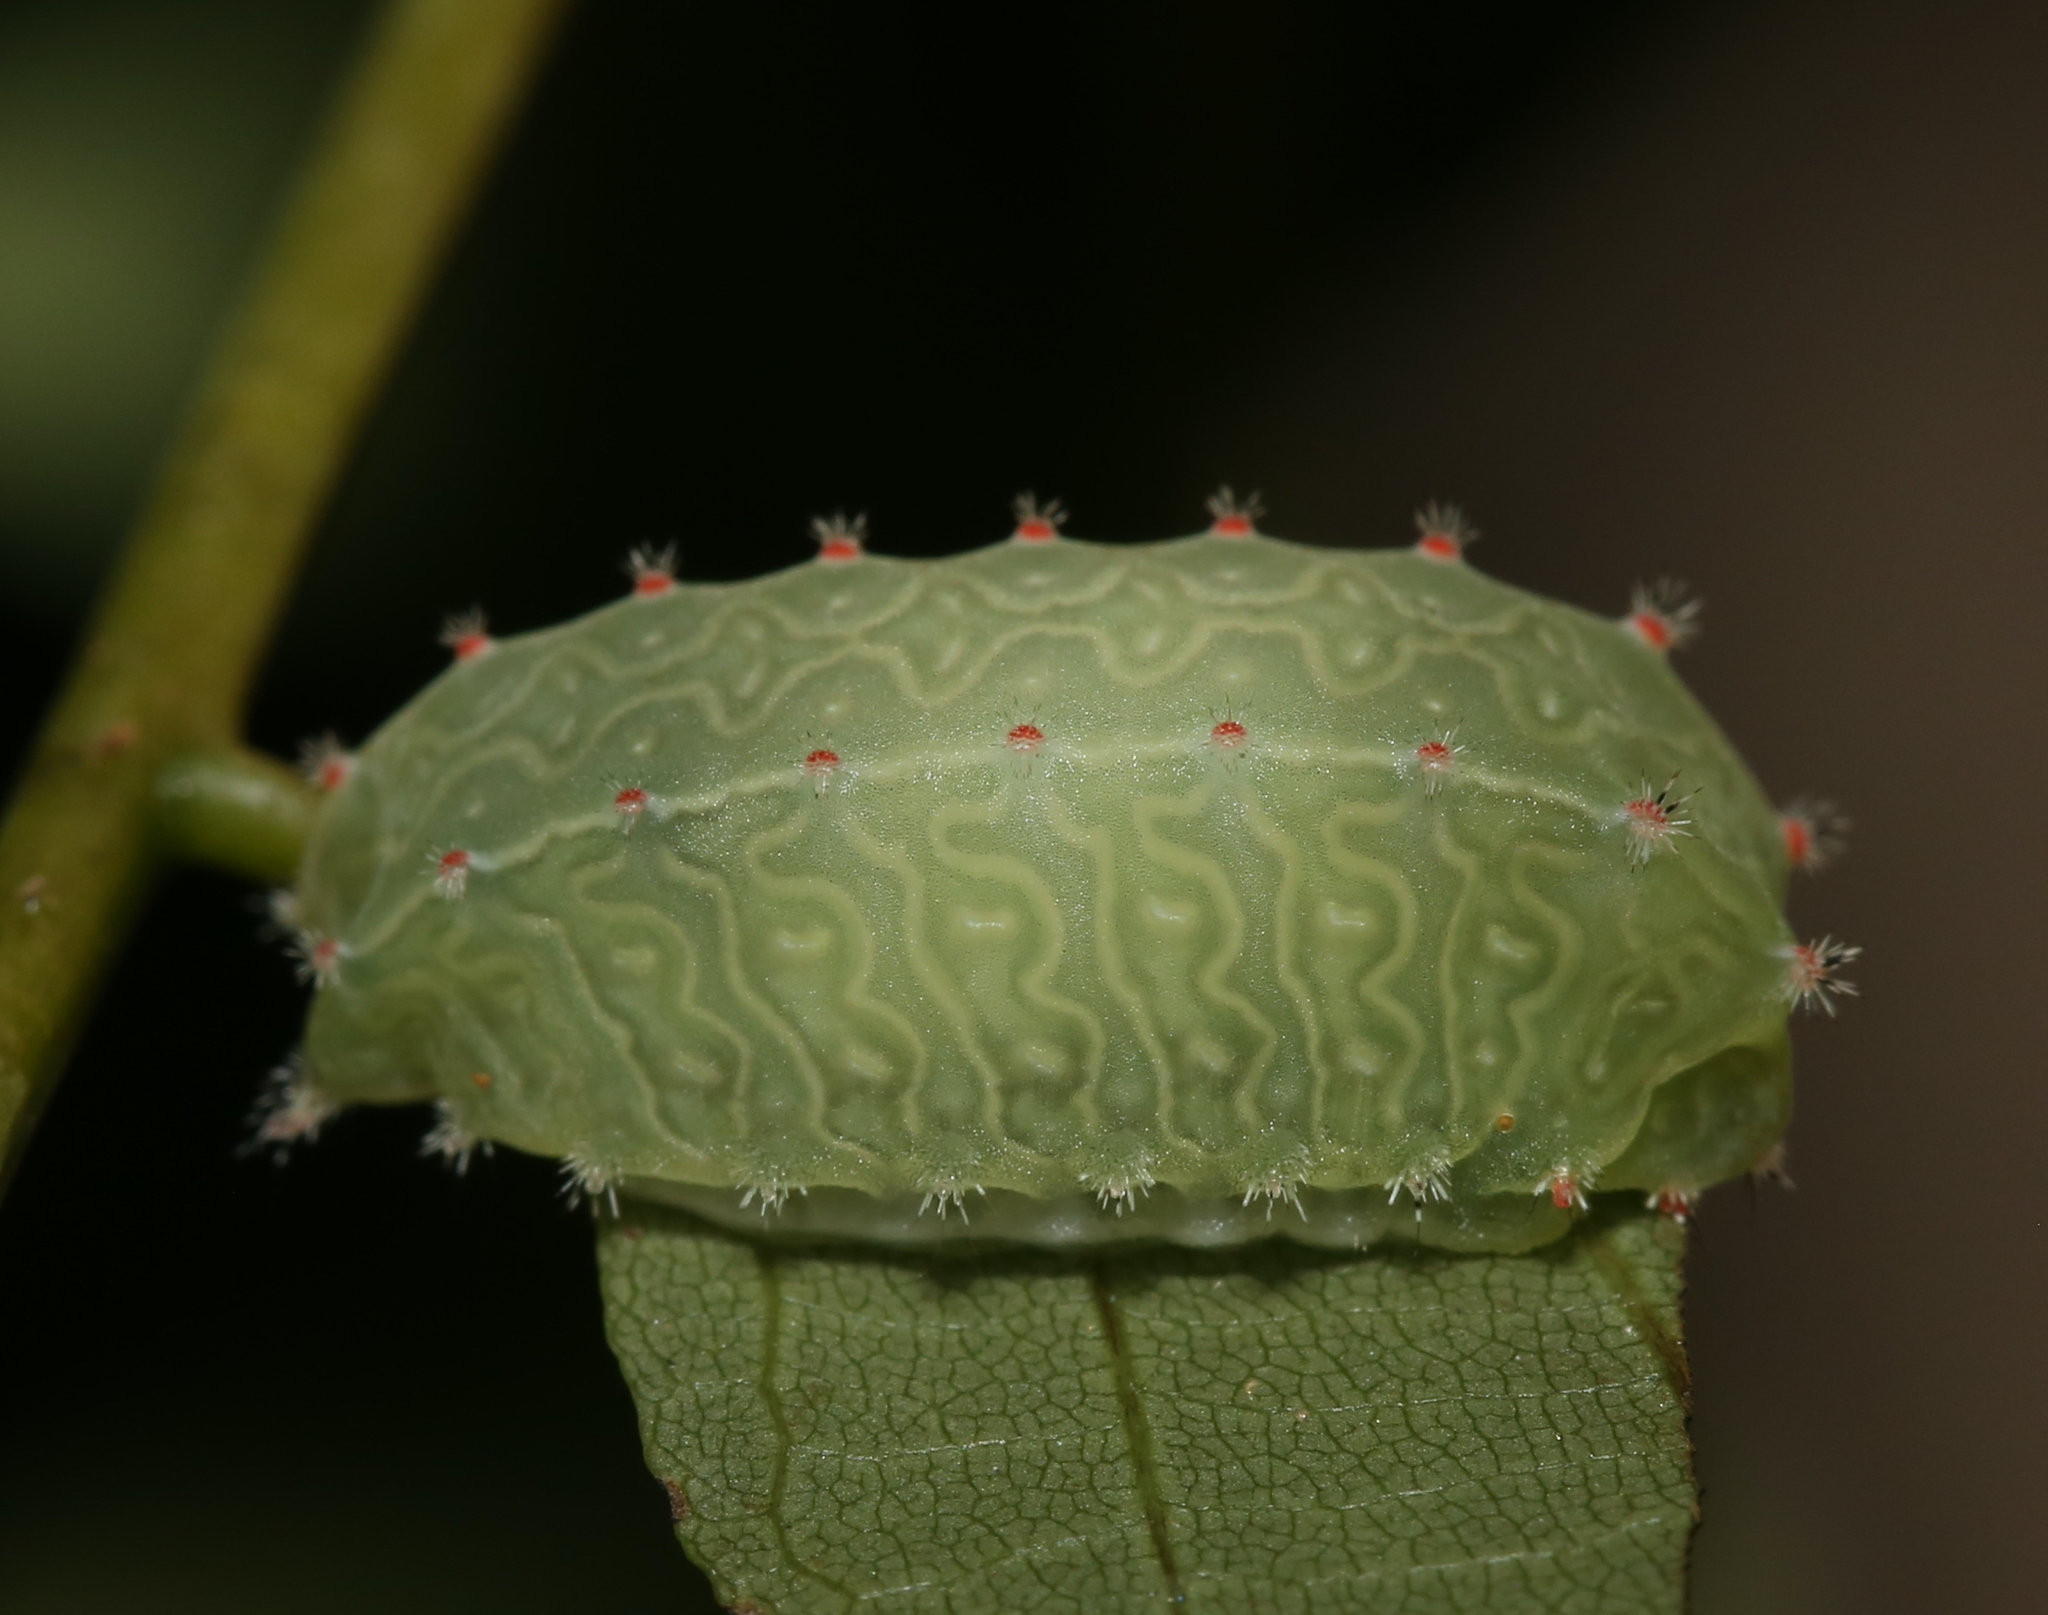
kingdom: Animalia
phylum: Arthropoda
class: Insecta
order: Lepidoptera
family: Limacodidae
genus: Natada
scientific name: Natada nasoni
